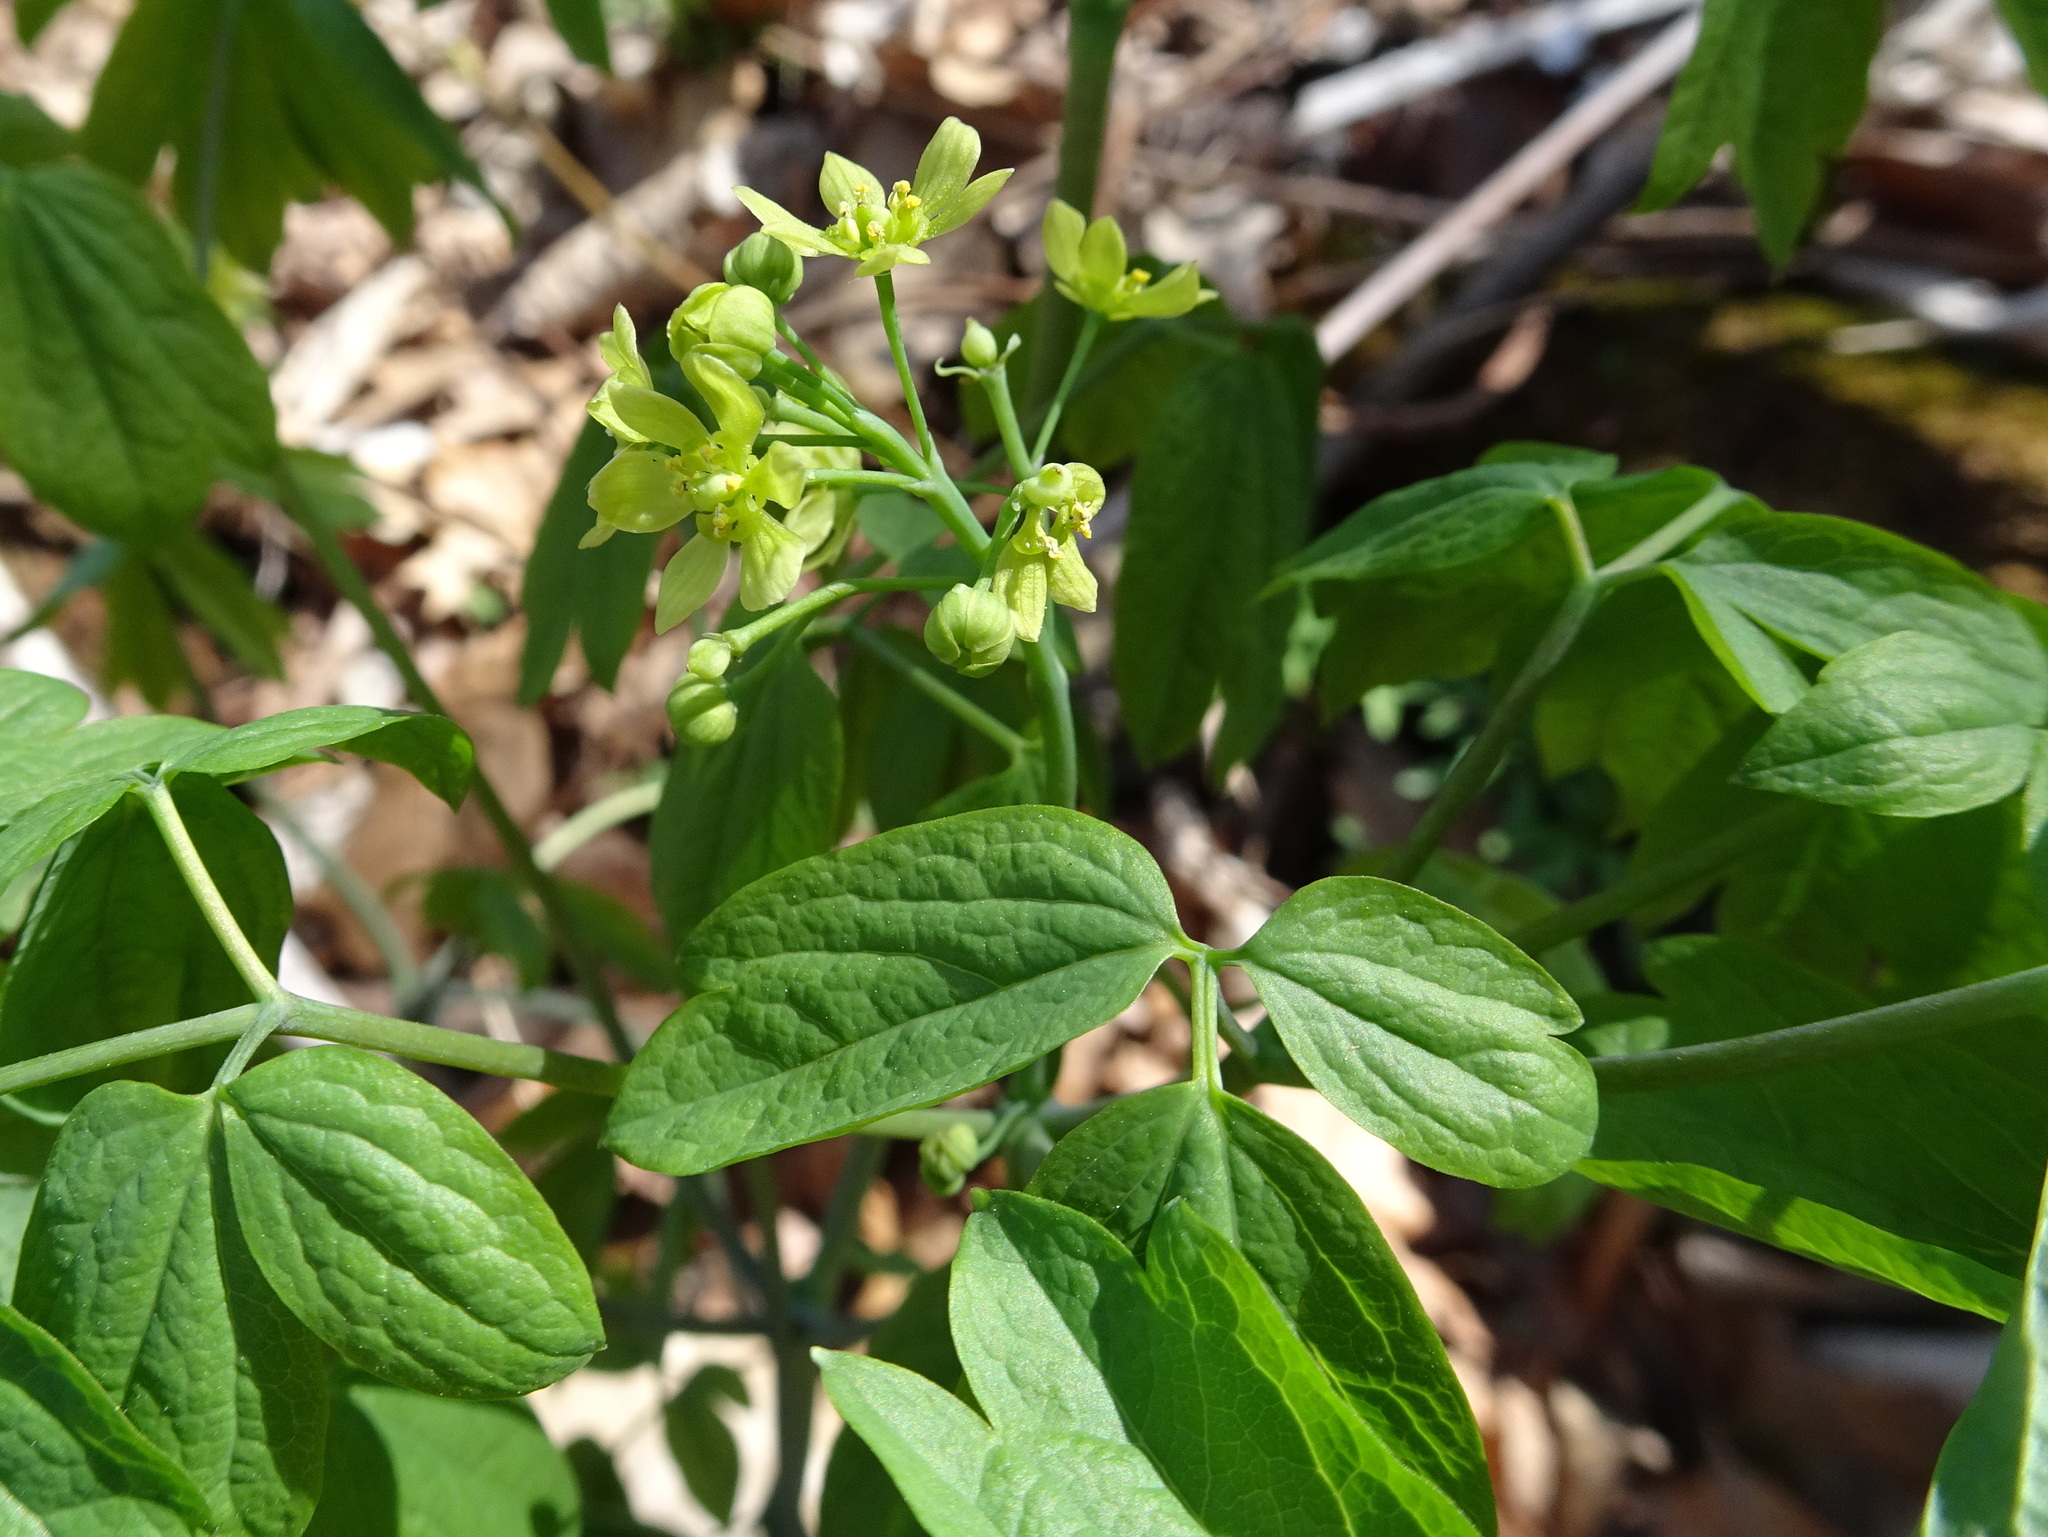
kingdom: Plantae
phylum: Tracheophyta
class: Magnoliopsida
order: Ranunculales
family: Berberidaceae
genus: Caulophyllum
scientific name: Caulophyllum thalictroides
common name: Blue cohosh
